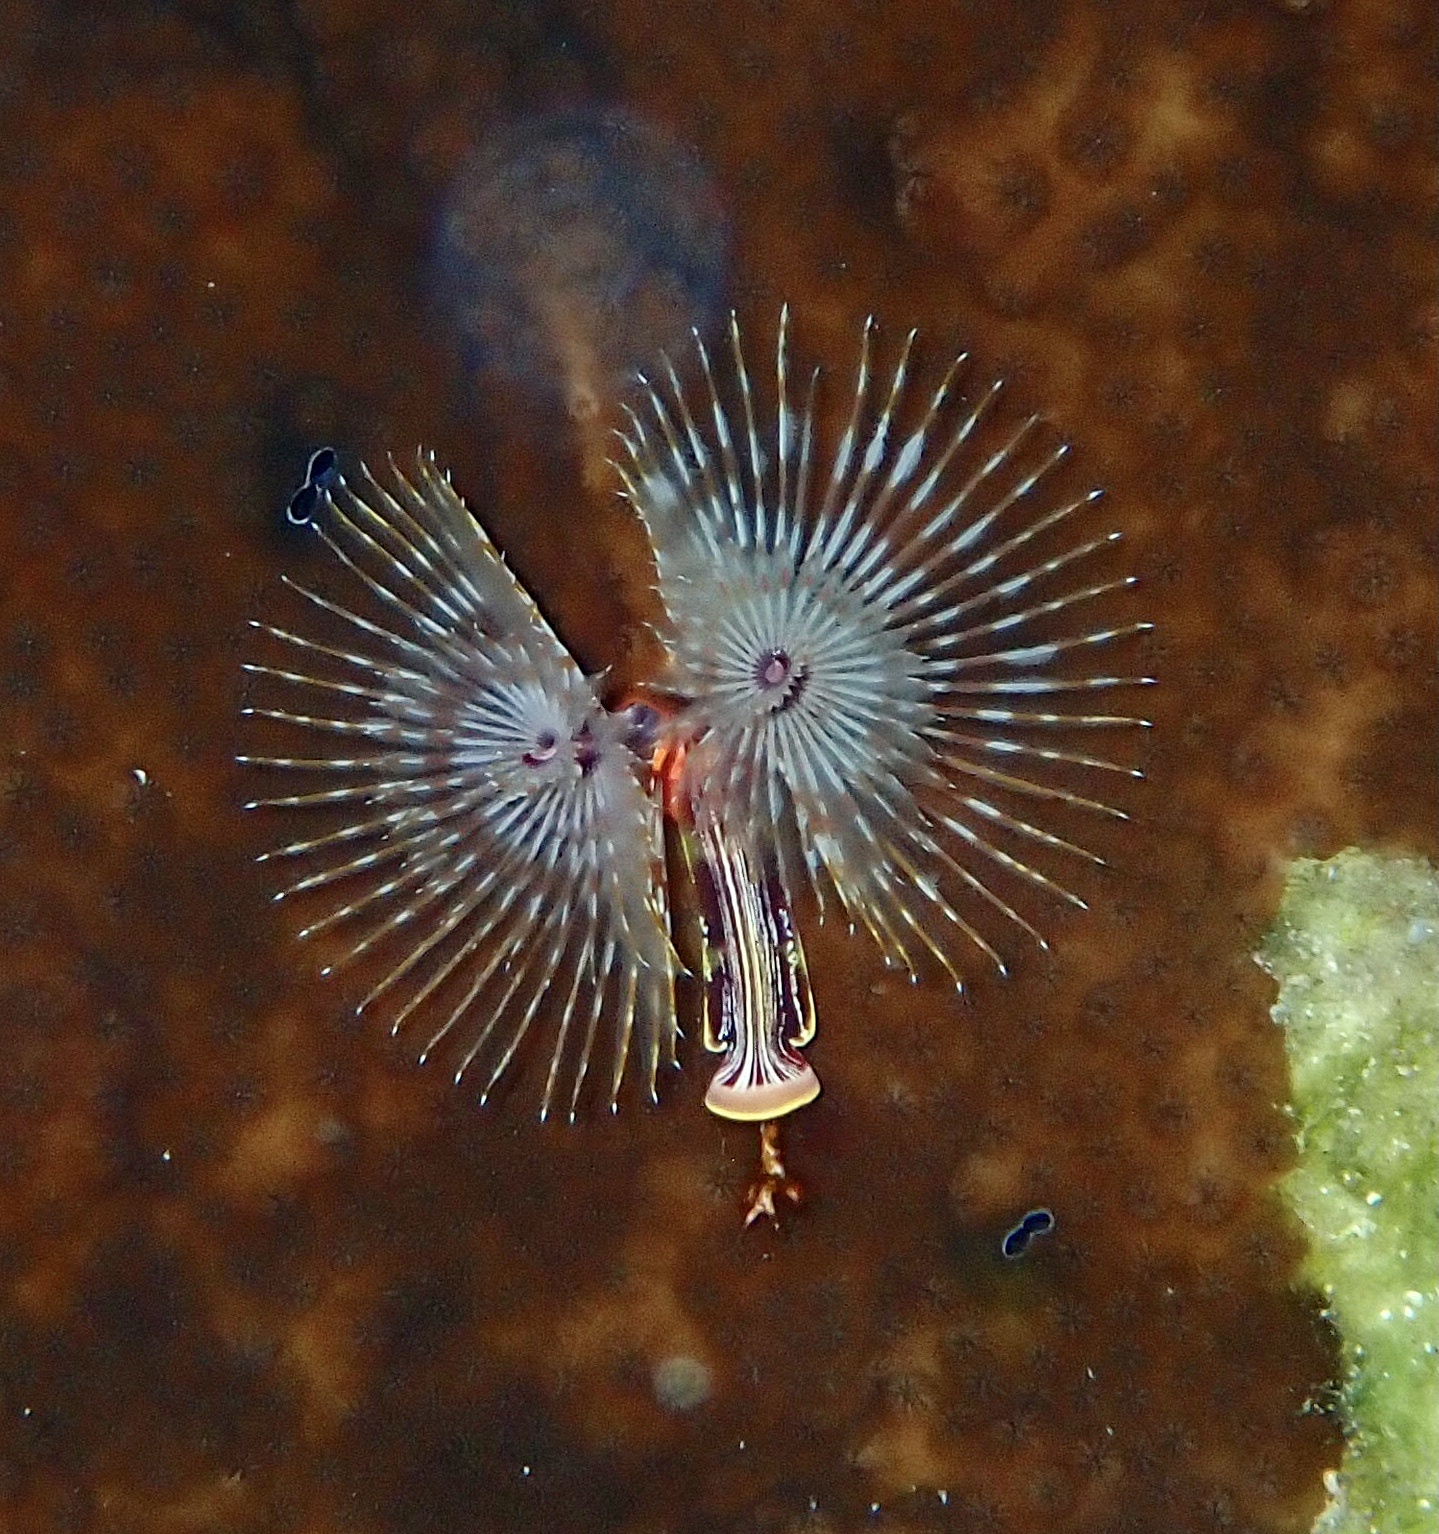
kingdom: Animalia
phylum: Annelida
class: Polychaeta
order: Sabellida
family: Serpulidae
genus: Spirobranchus
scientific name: Spirobranchus aloni
